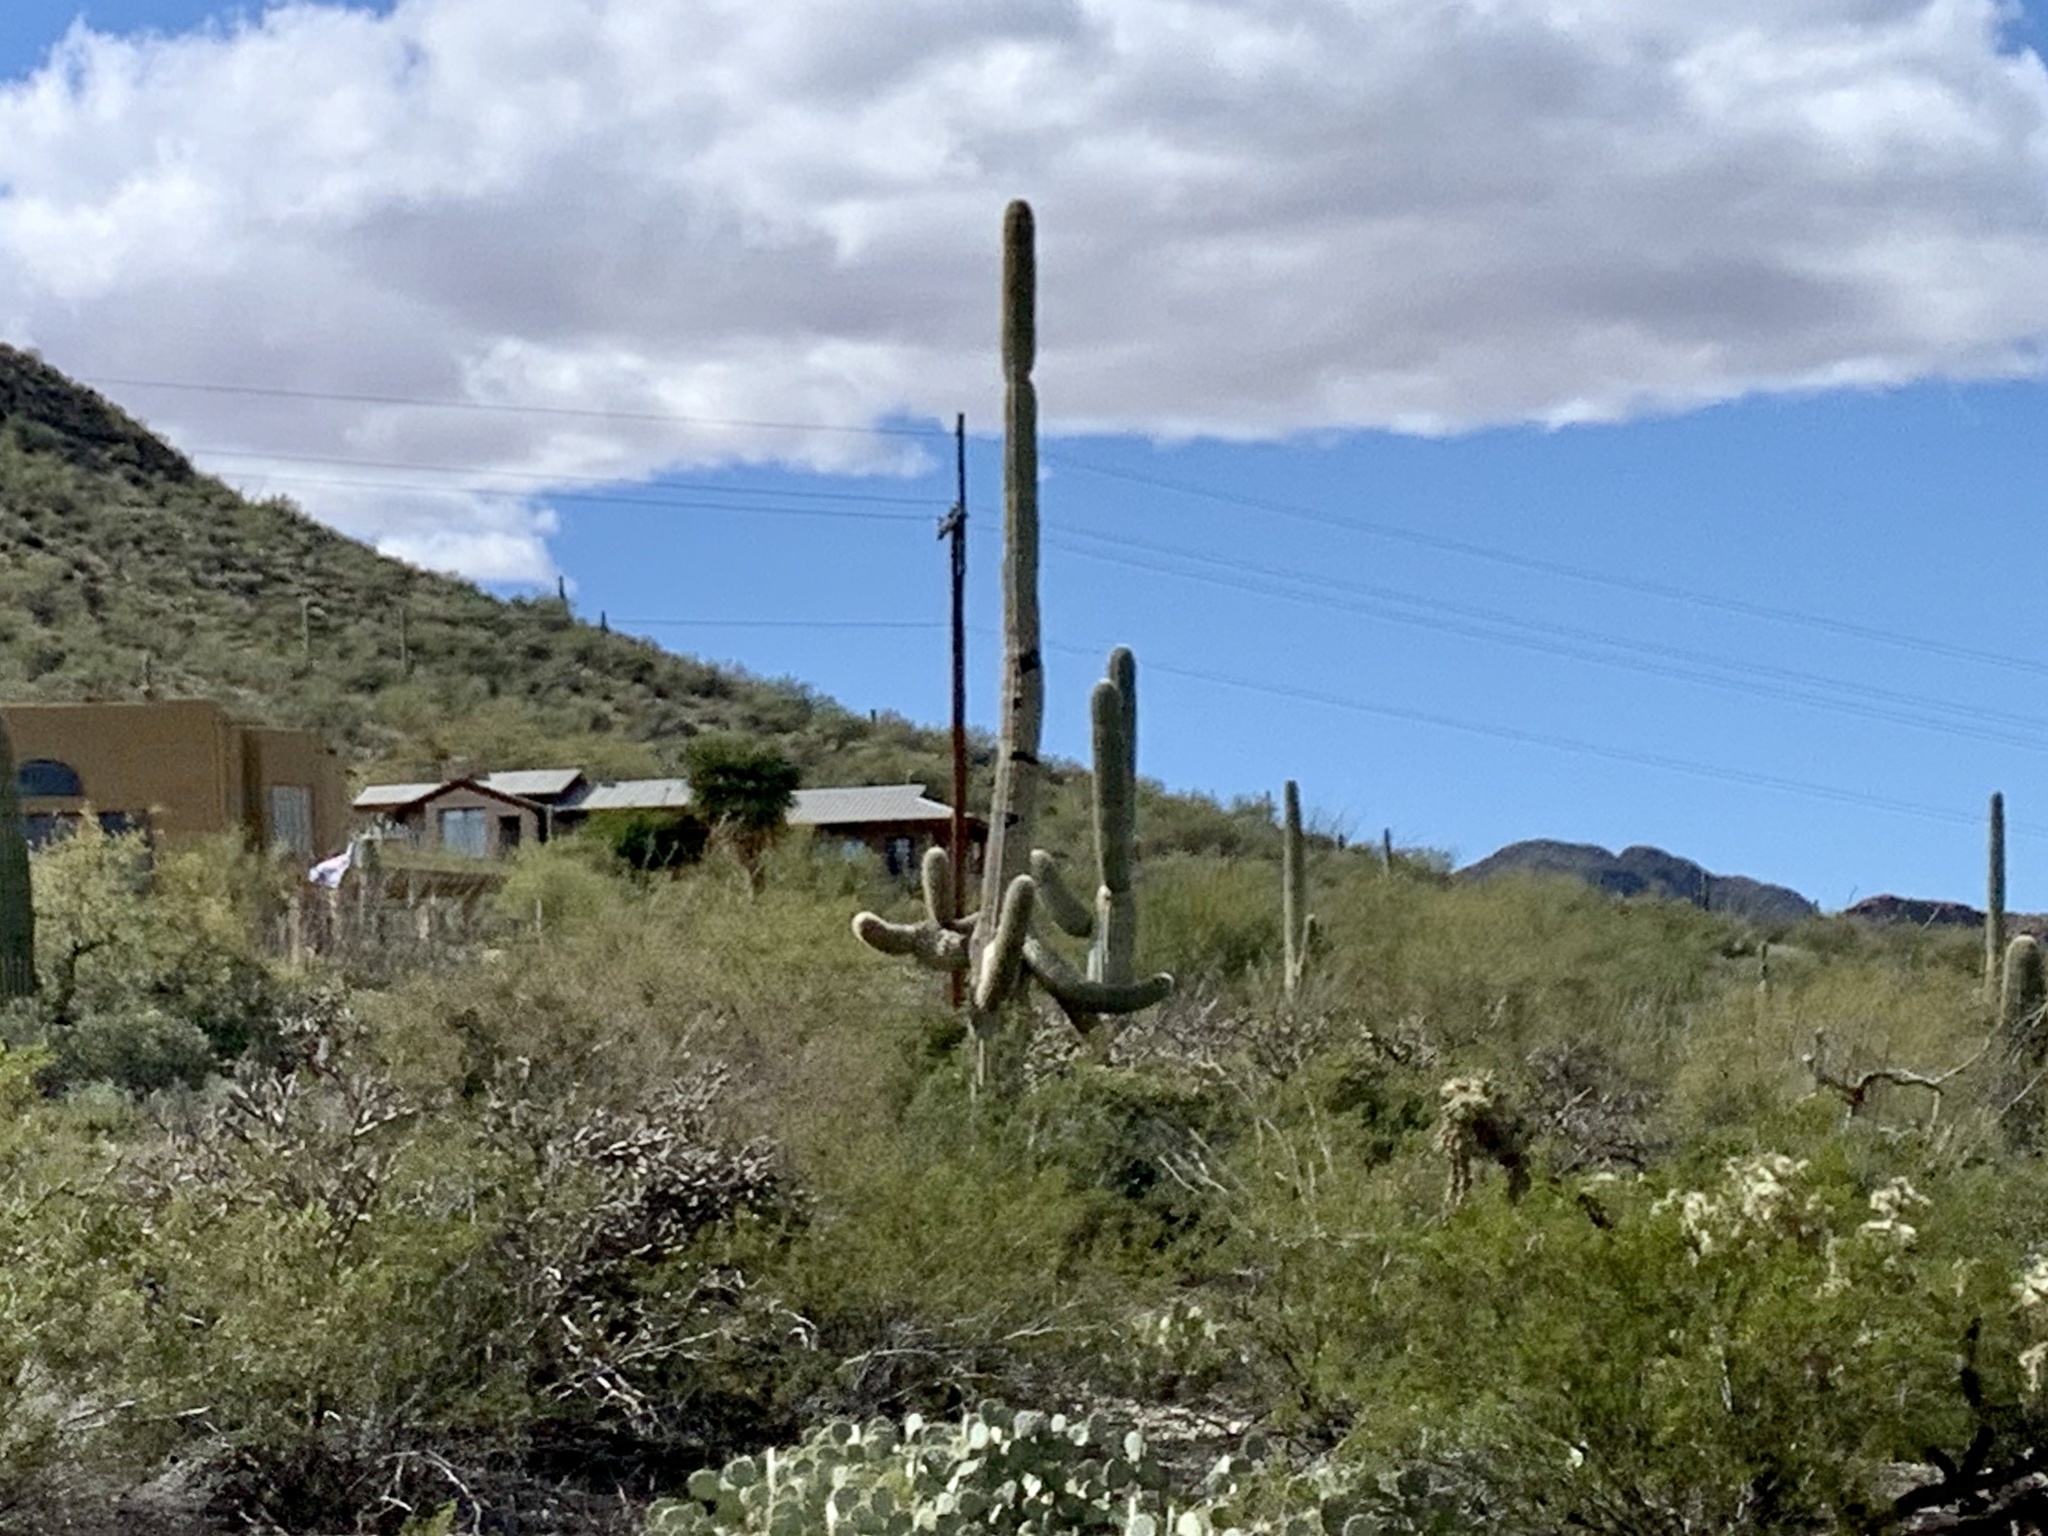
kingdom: Plantae
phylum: Tracheophyta
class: Magnoliopsida
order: Caryophyllales
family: Cactaceae
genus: Carnegiea
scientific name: Carnegiea gigantea
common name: Saguaro
